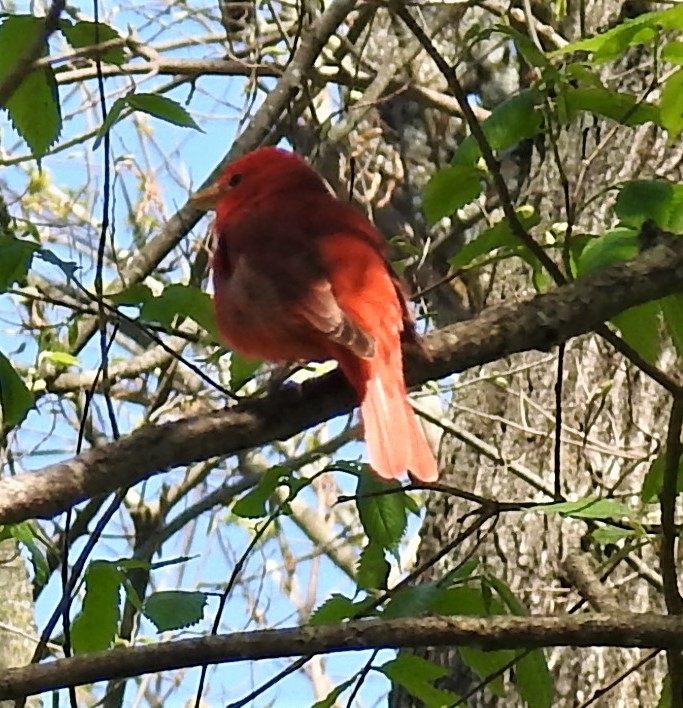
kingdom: Animalia
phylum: Chordata
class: Aves
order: Passeriformes
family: Cardinalidae
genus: Piranga
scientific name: Piranga rubra
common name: Summer tanager
